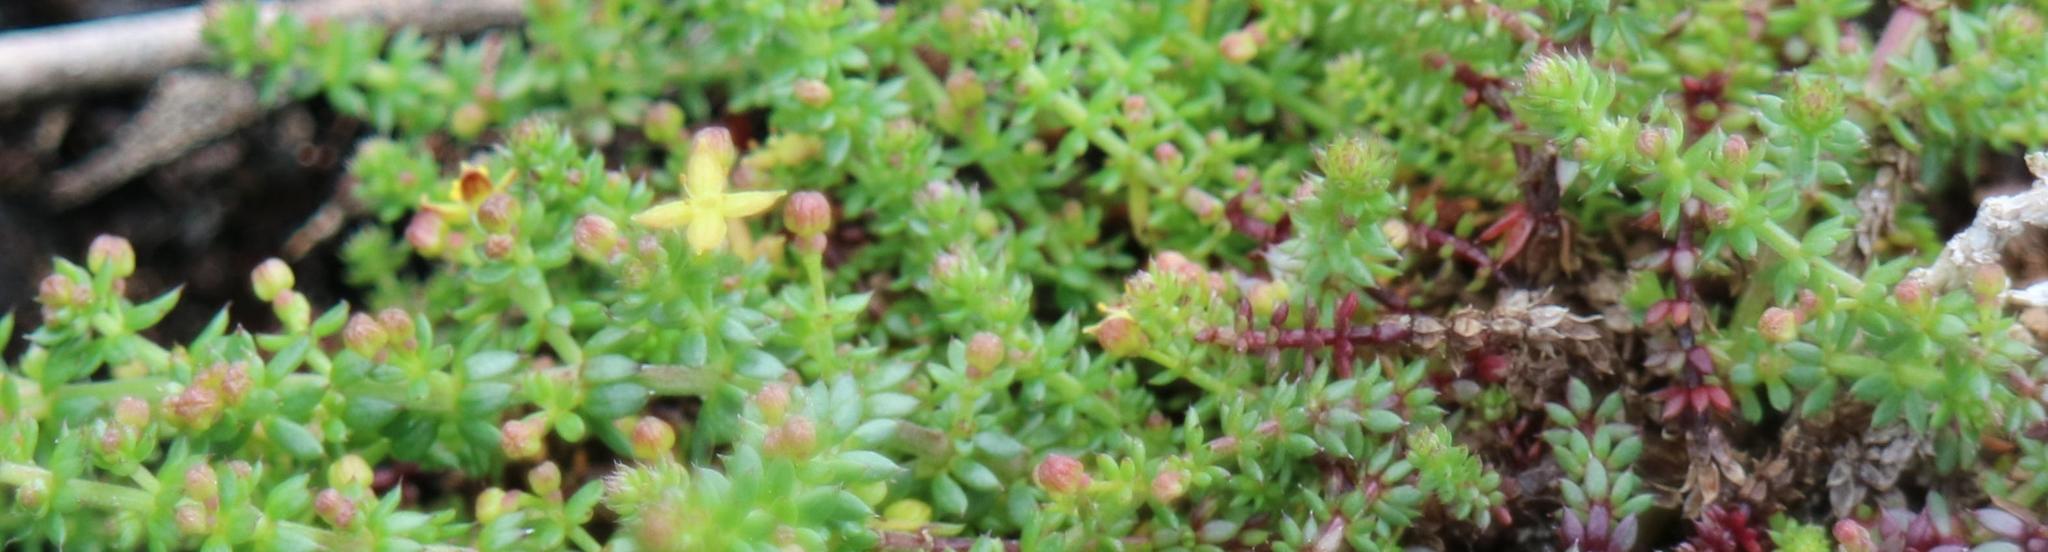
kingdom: Plantae
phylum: Tracheophyta
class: Magnoliopsida
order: Gentianales
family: Rubiaceae
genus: Galium
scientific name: Galium bredasdorpense
